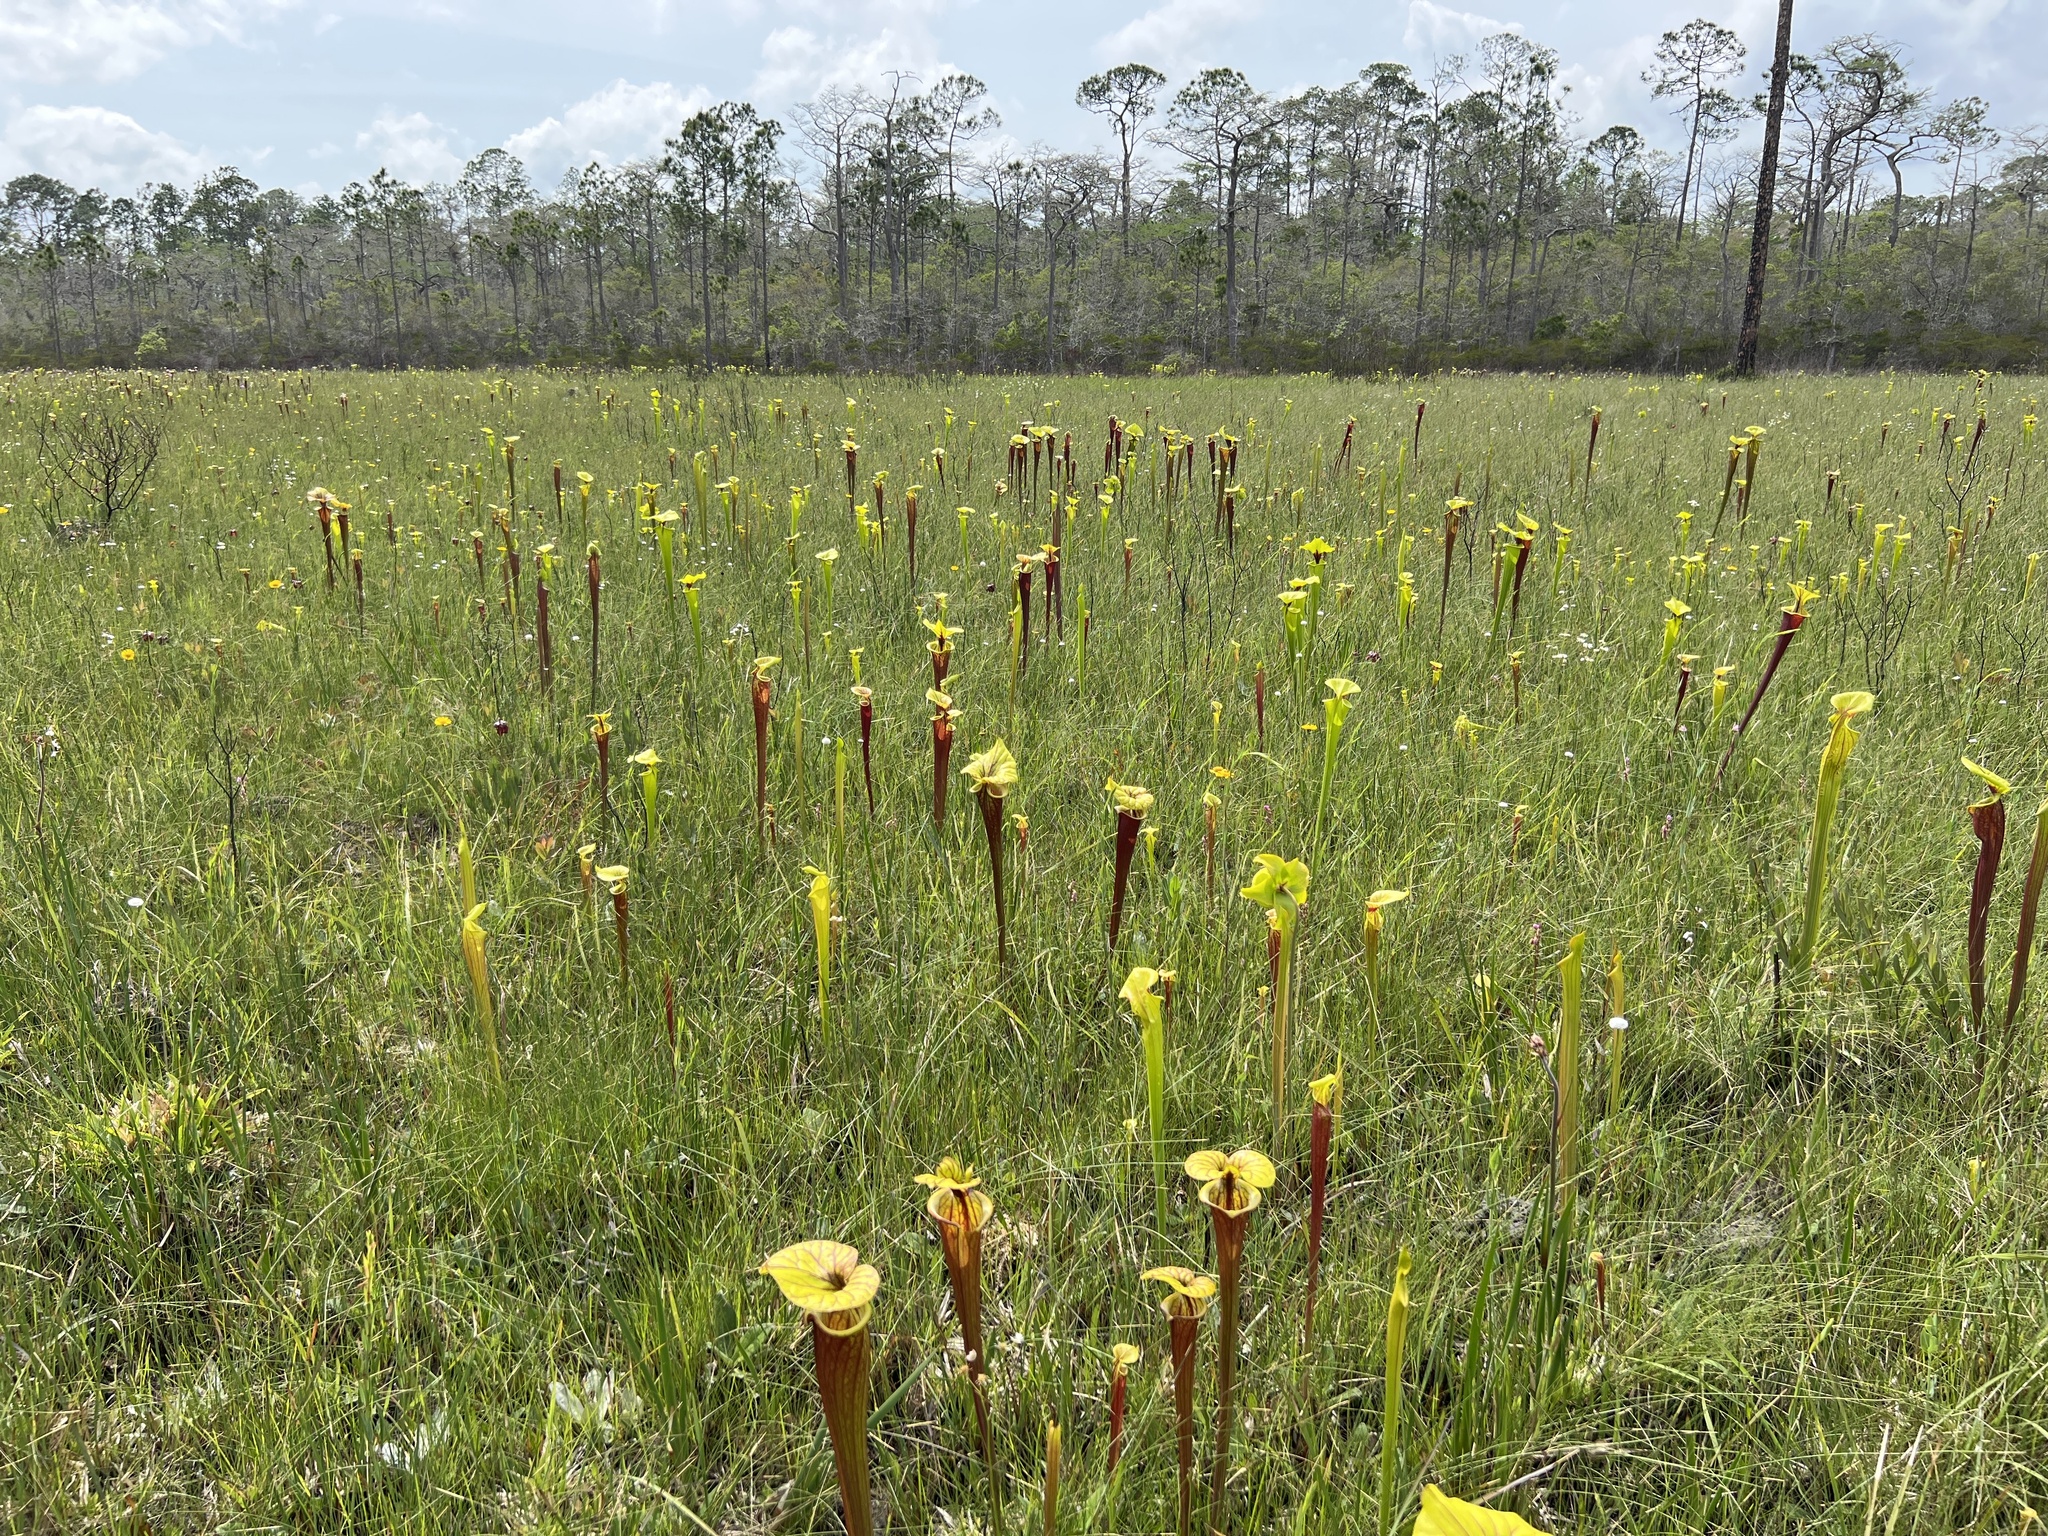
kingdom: Plantae
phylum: Tracheophyta
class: Magnoliopsida
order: Ericales
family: Sarraceniaceae
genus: Sarracenia
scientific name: Sarracenia flava
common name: Trumpets
